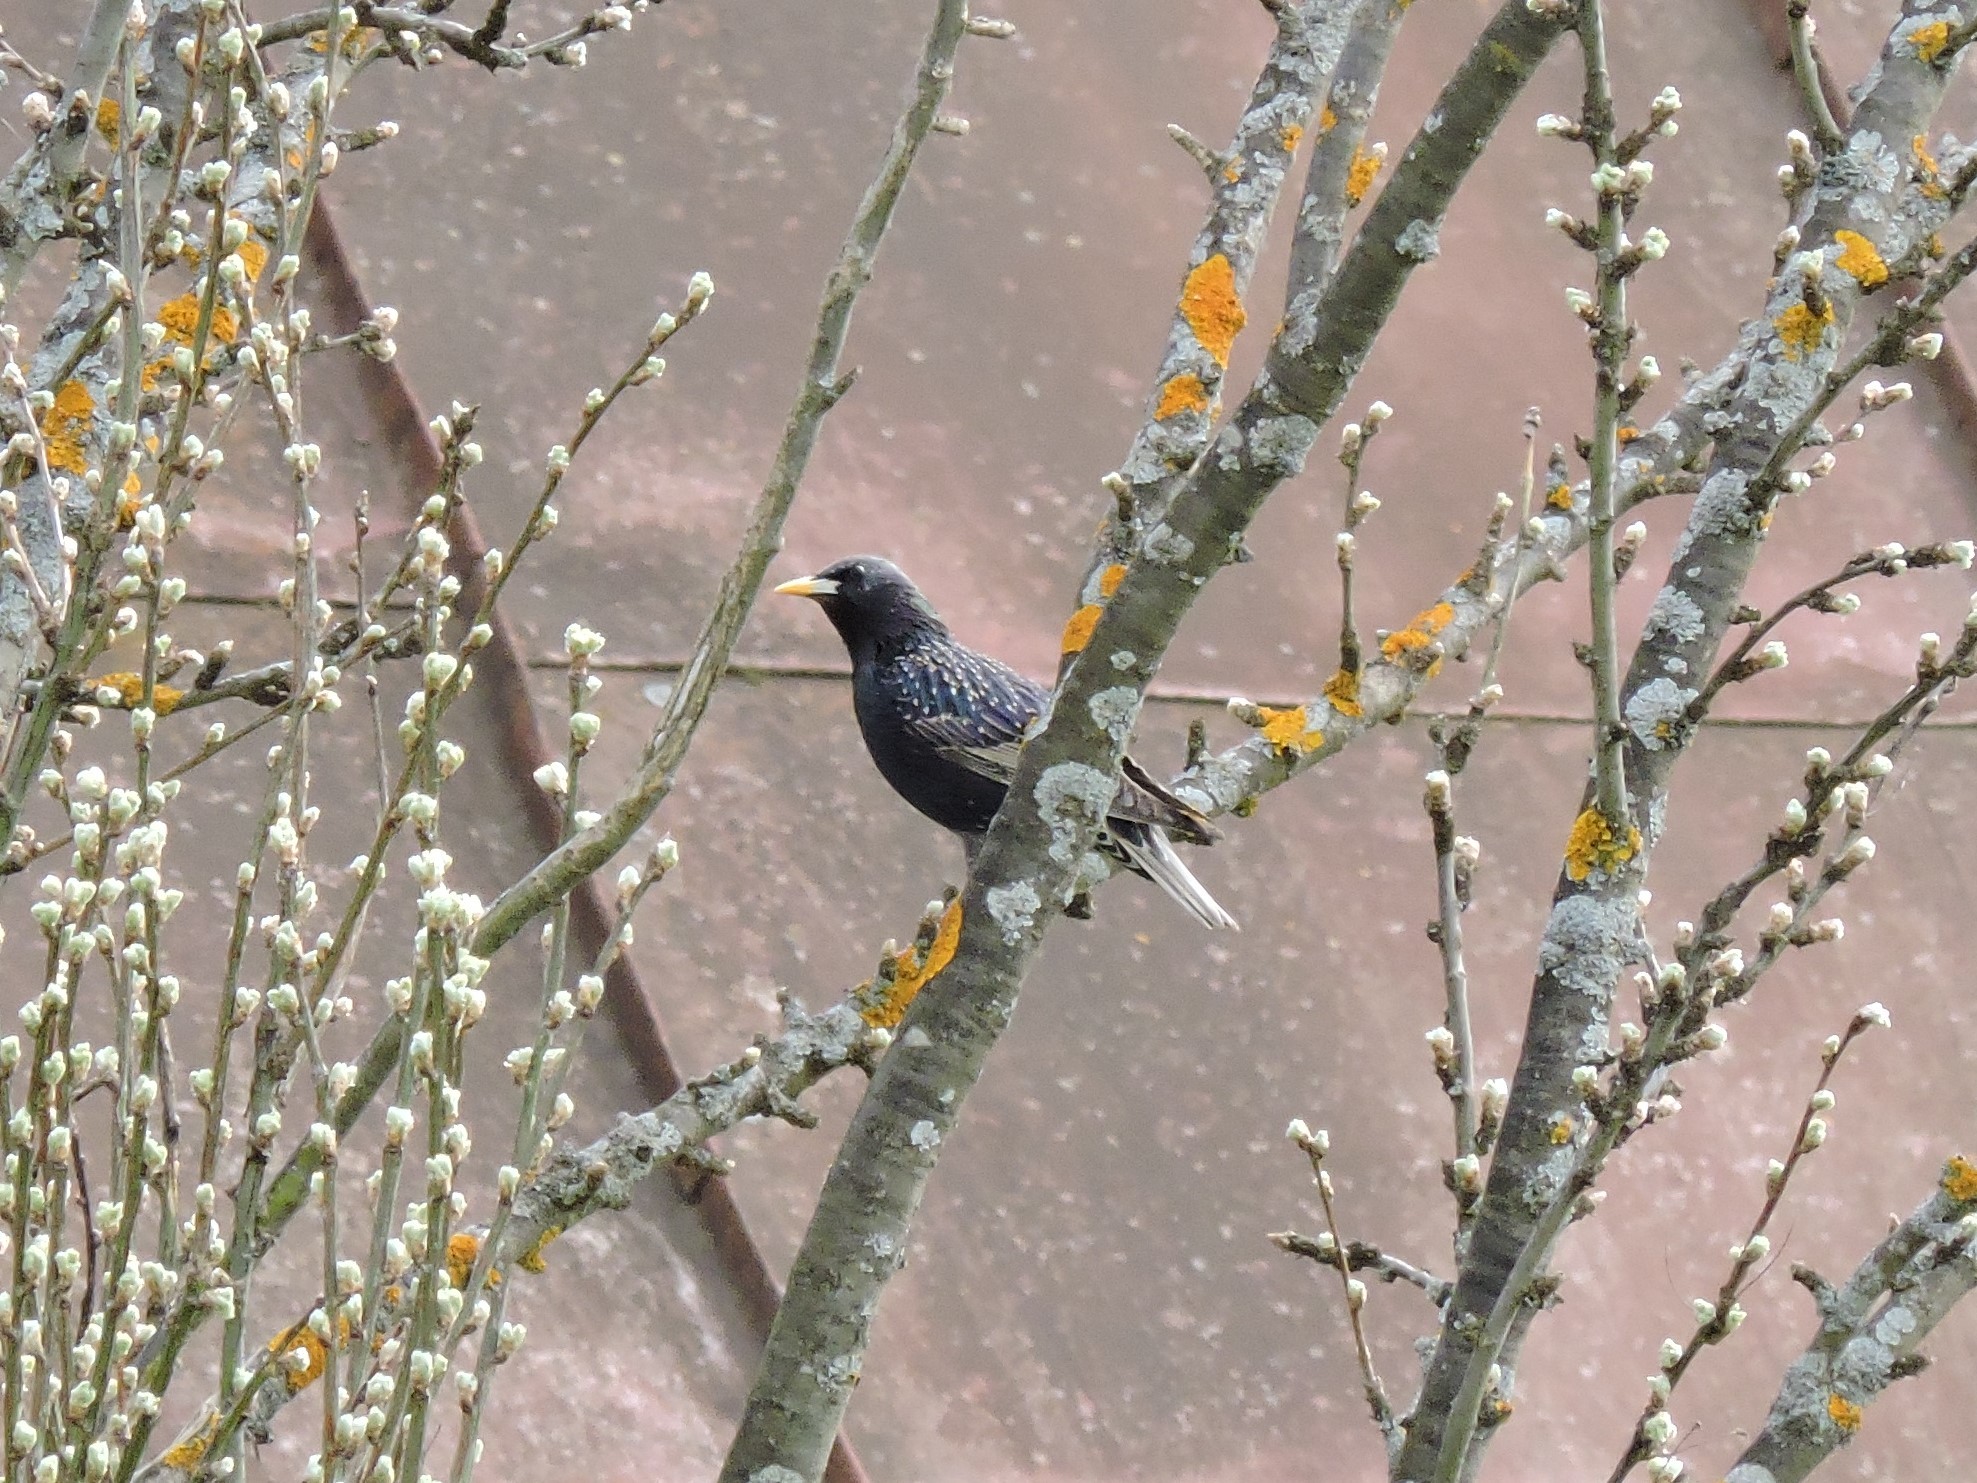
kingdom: Animalia
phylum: Chordata
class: Aves
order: Passeriformes
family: Sturnidae
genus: Sturnus
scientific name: Sturnus vulgaris
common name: Common starling
